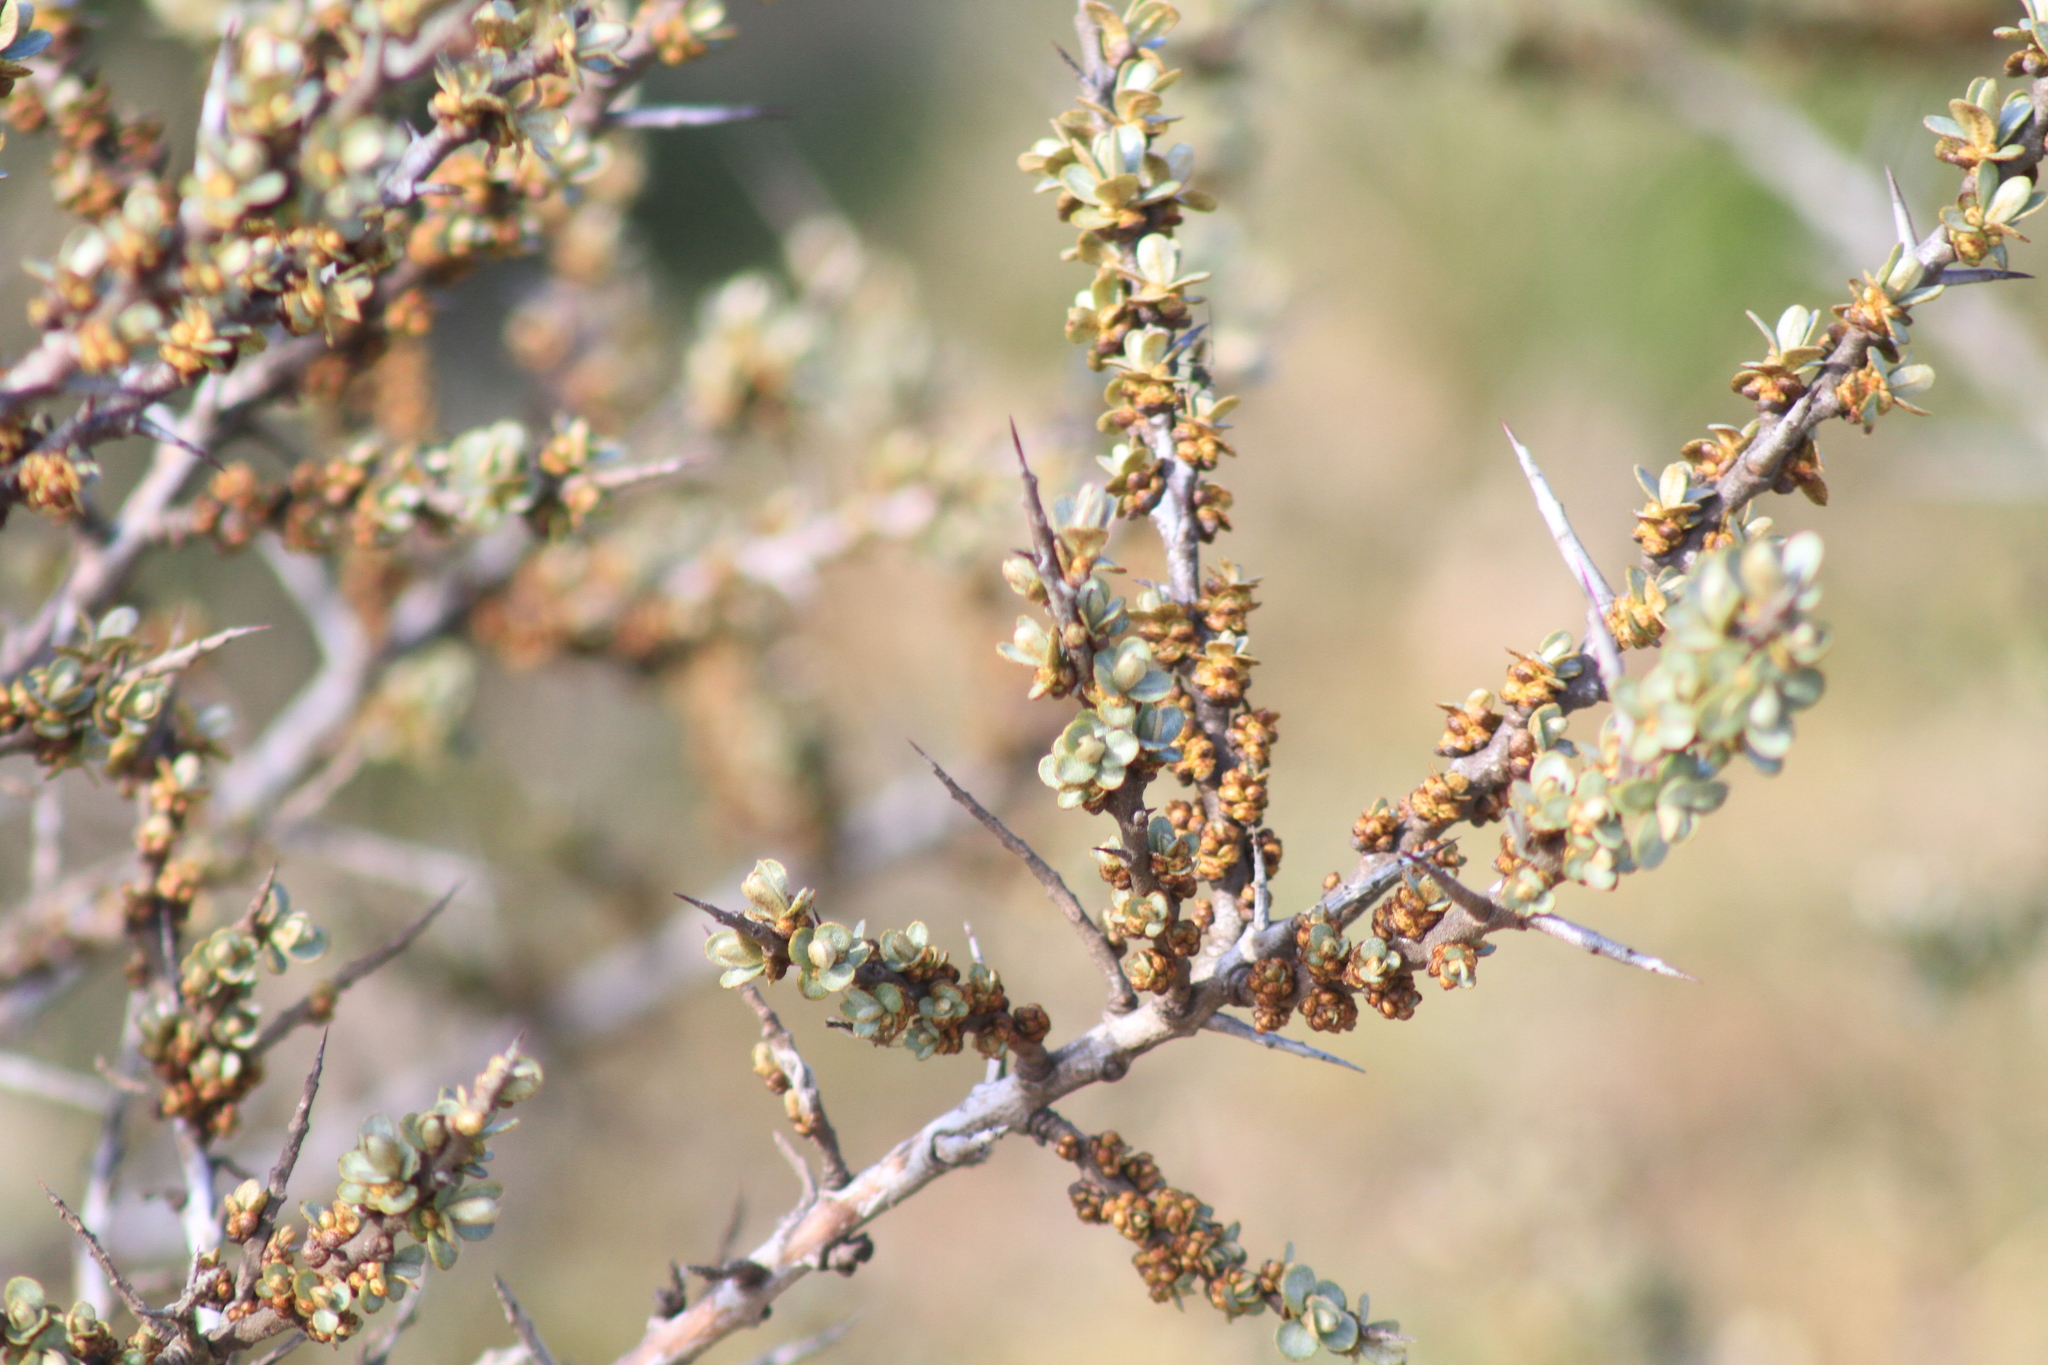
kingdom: Plantae
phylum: Tracheophyta
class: Magnoliopsida
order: Rosales
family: Elaeagnaceae
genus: Hippophae
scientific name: Hippophae rhamnoides
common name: Sea-buckthorn
